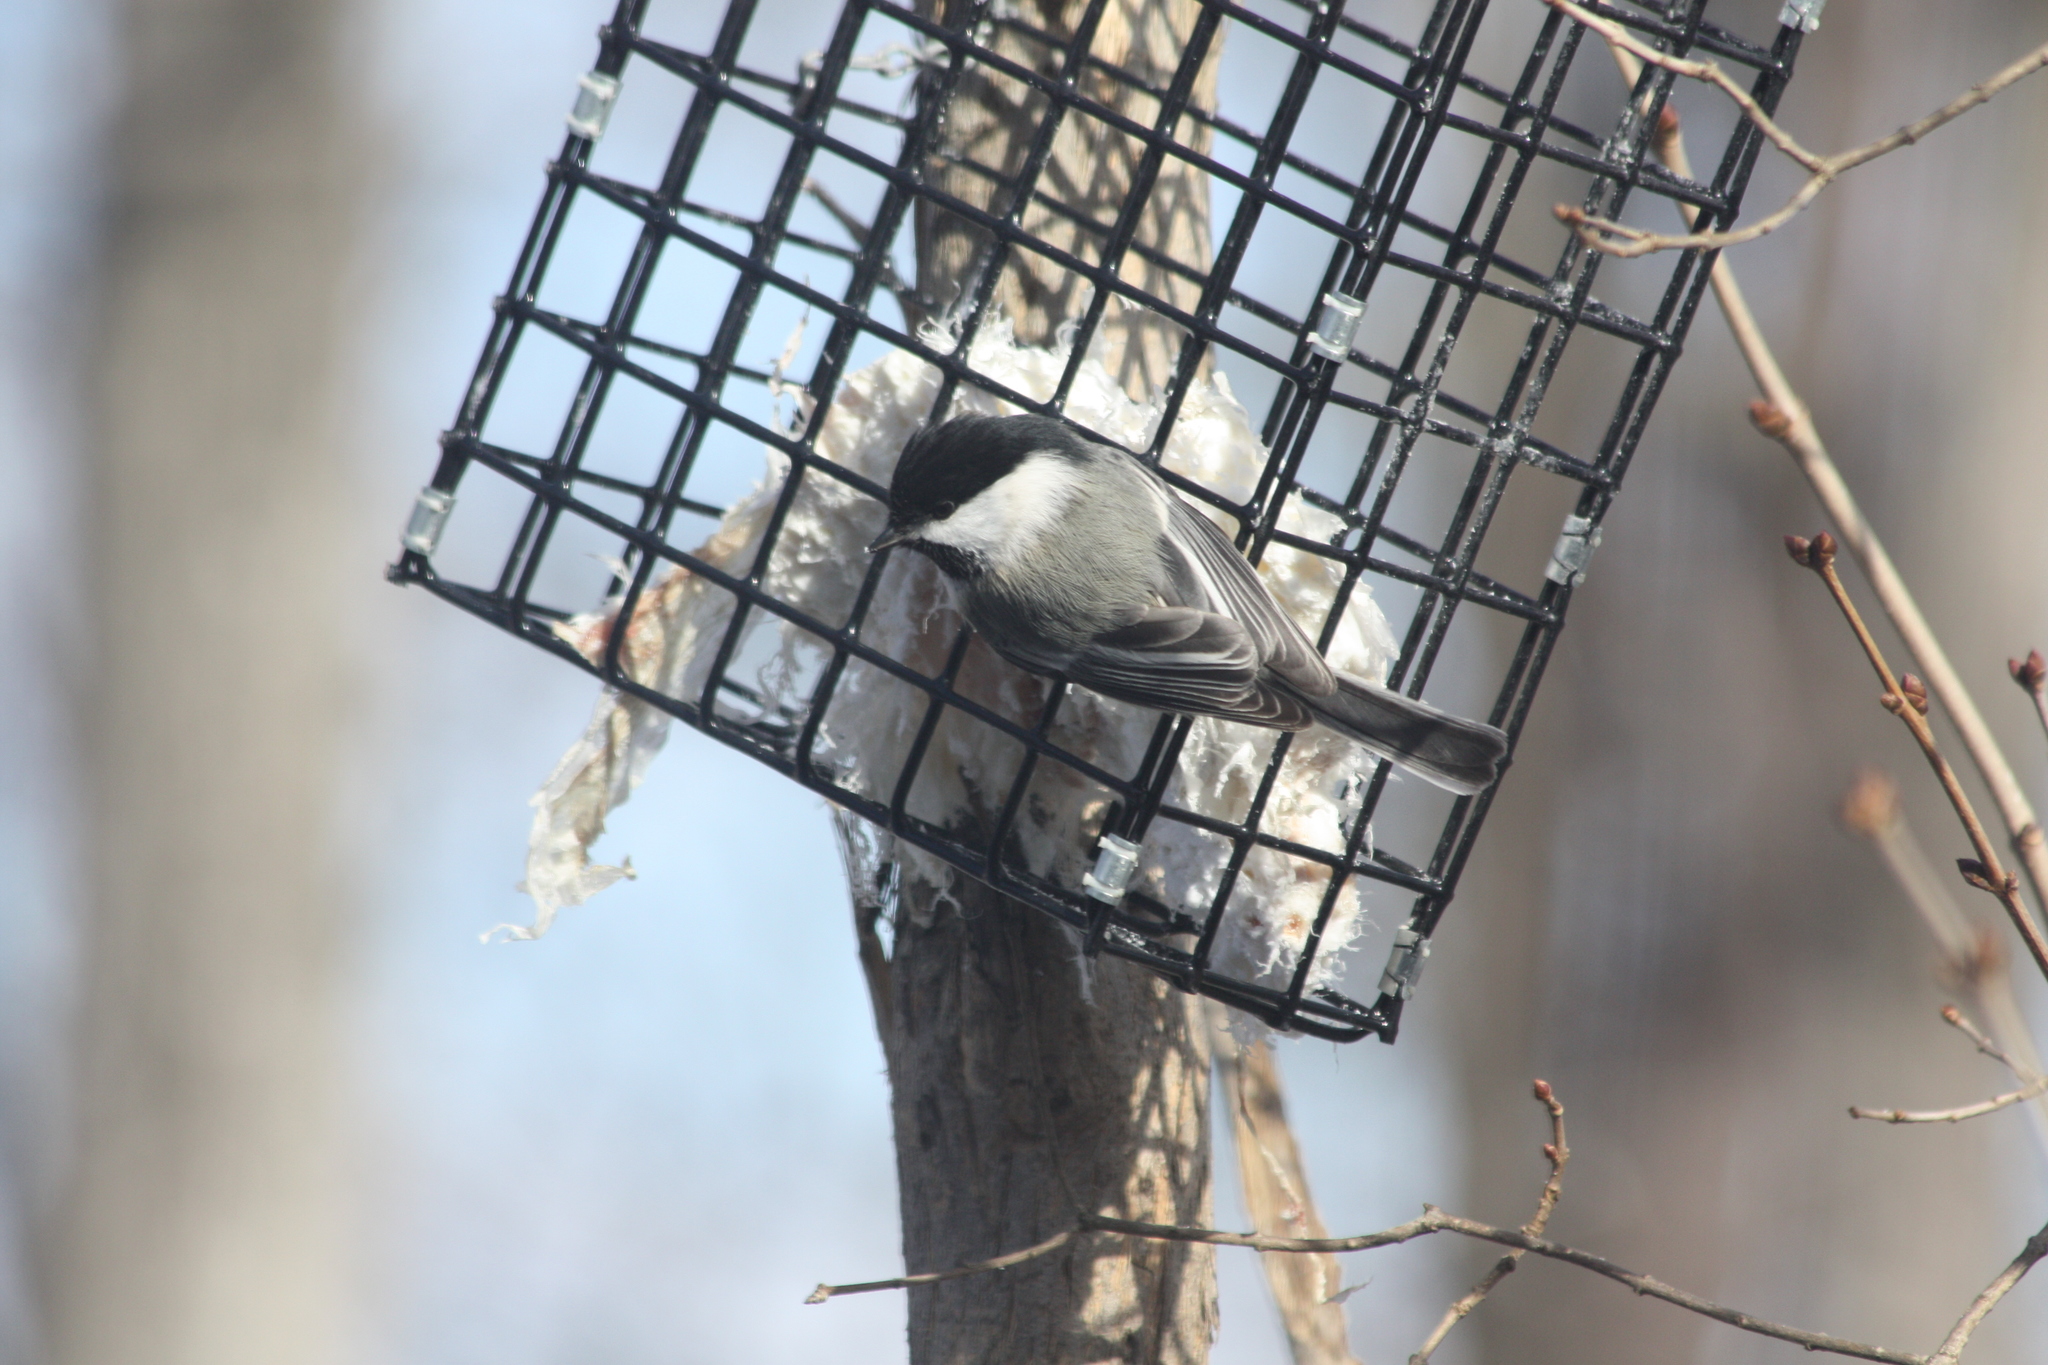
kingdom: Animalia
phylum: Chordata
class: Aves
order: Passeriformes
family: Paridae
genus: Poecile
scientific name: Poecile atricapillus
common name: Black-capped chickadee
